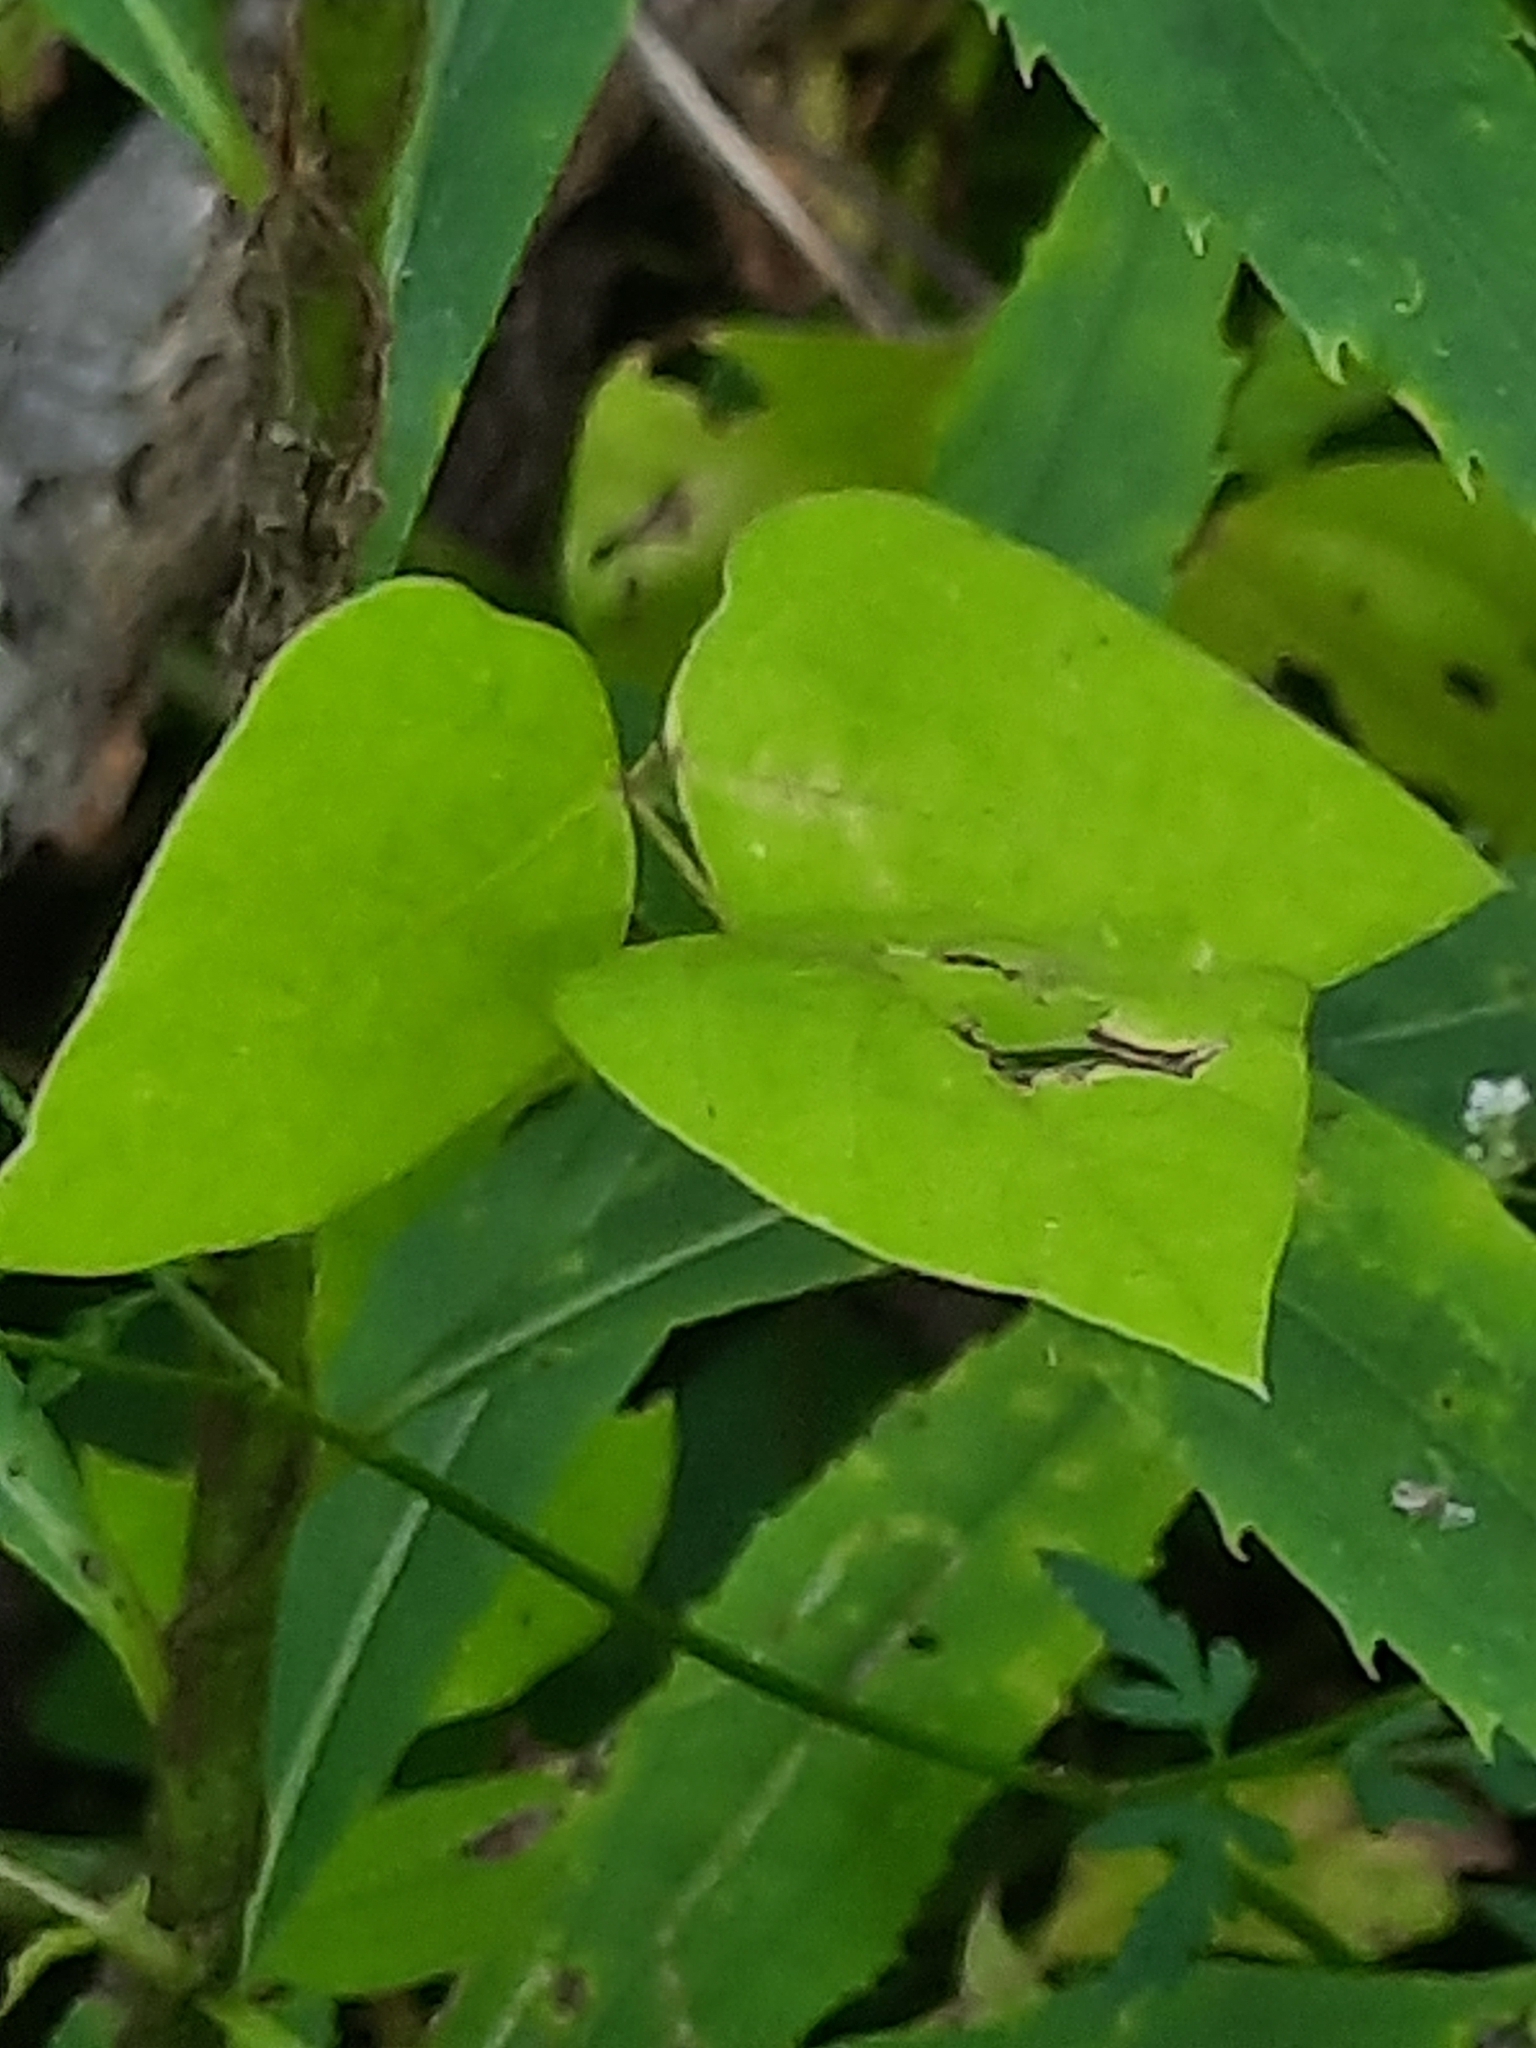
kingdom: Plantae
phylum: Tracheophyta
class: Magnoliopsida
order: Fabales
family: Fabaceae
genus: Amphicarpaea
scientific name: Amphicarpaea bracteata
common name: American hog peanut
